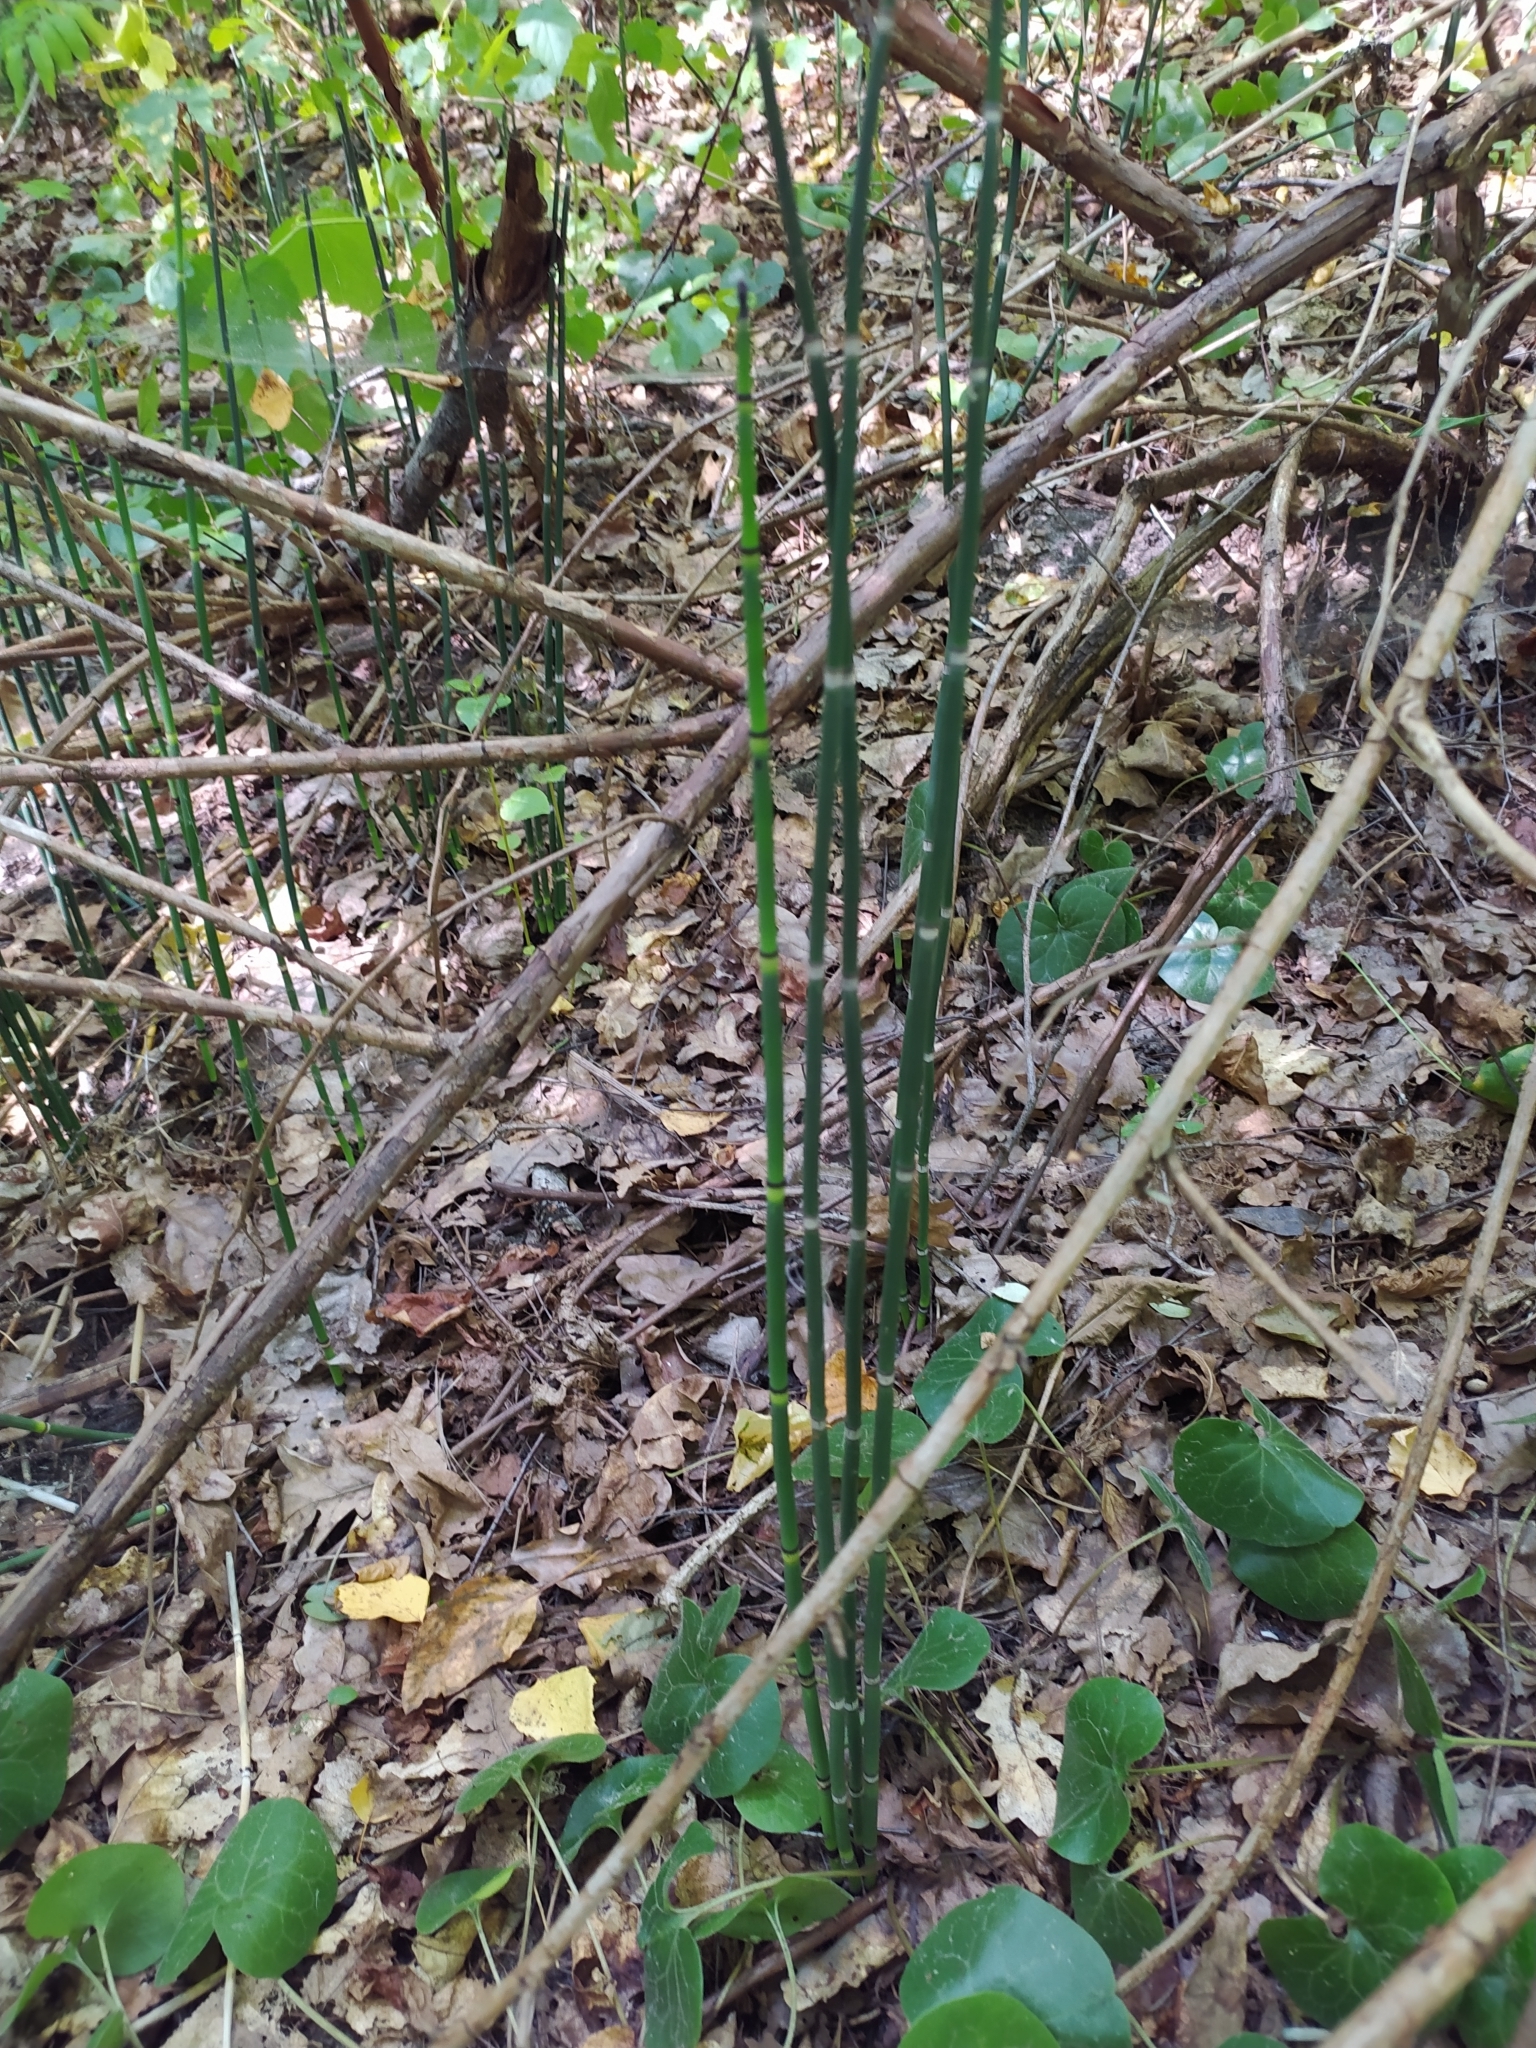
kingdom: Plantae
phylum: Tracheophyta
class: Polypodiopsida
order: Equisetales
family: Equisetaceae
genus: Equisetum
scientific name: Equisetum hyemale
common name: Rough horsetail
